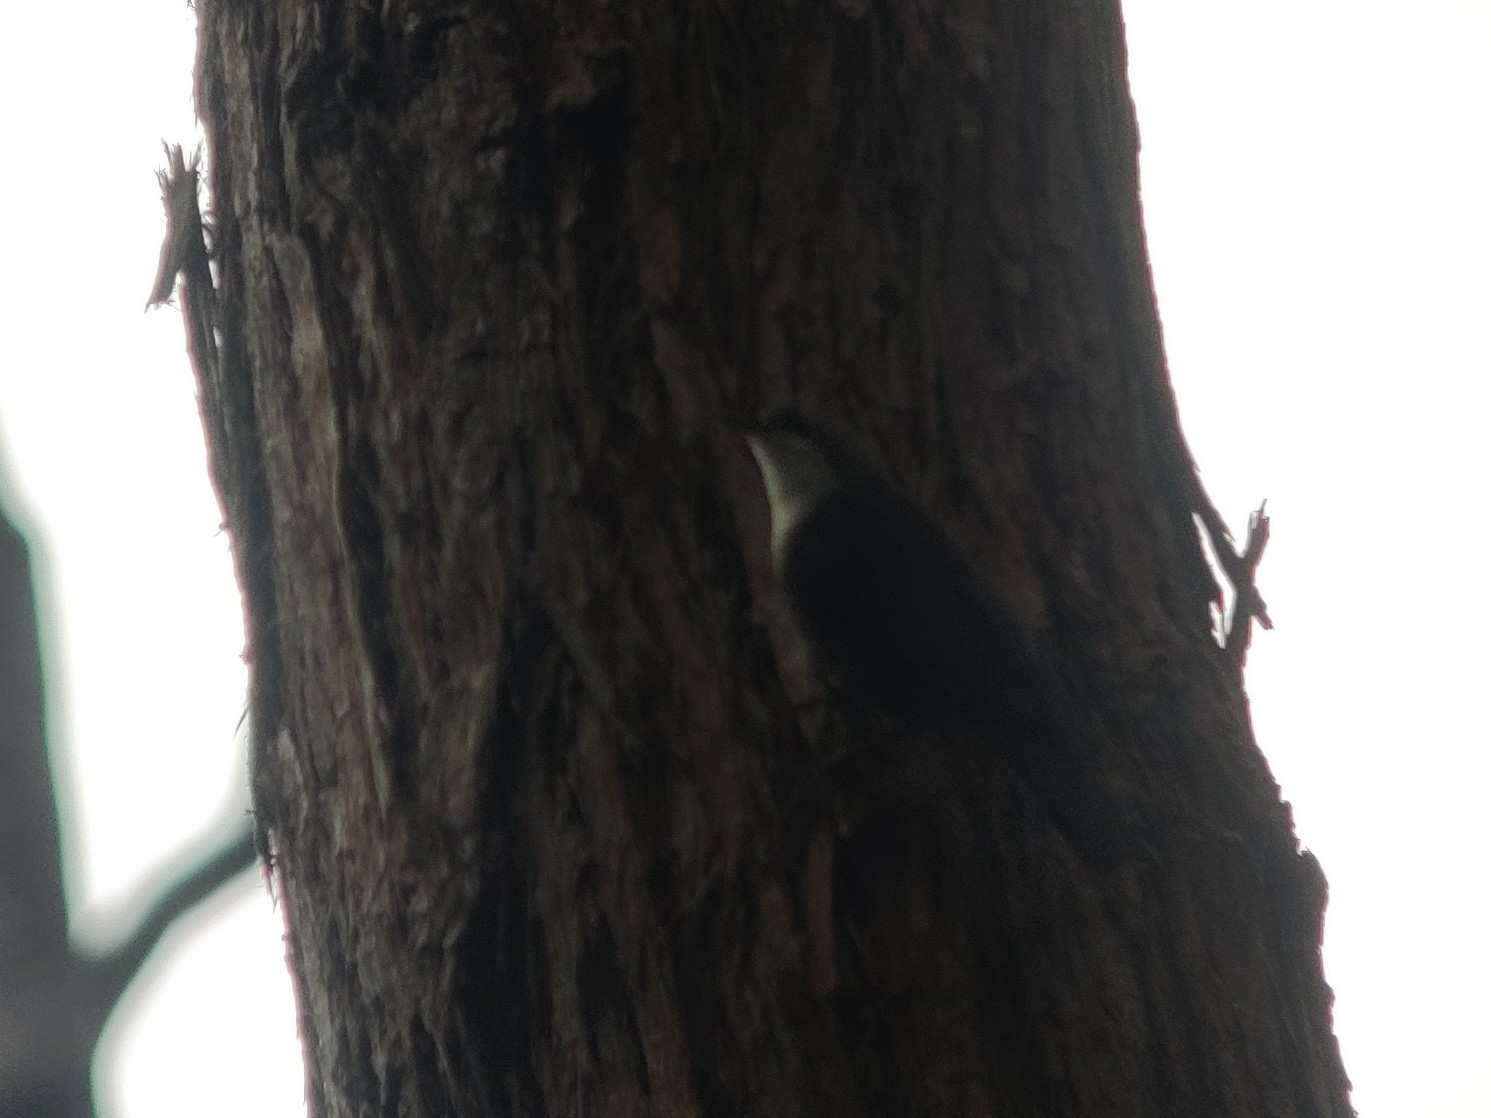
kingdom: Animalia
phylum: Chordata
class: Aves
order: Passeriformes
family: Climacteridae
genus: Cormobates
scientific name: Cormobates leucophaea
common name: White-throated treecreeper
